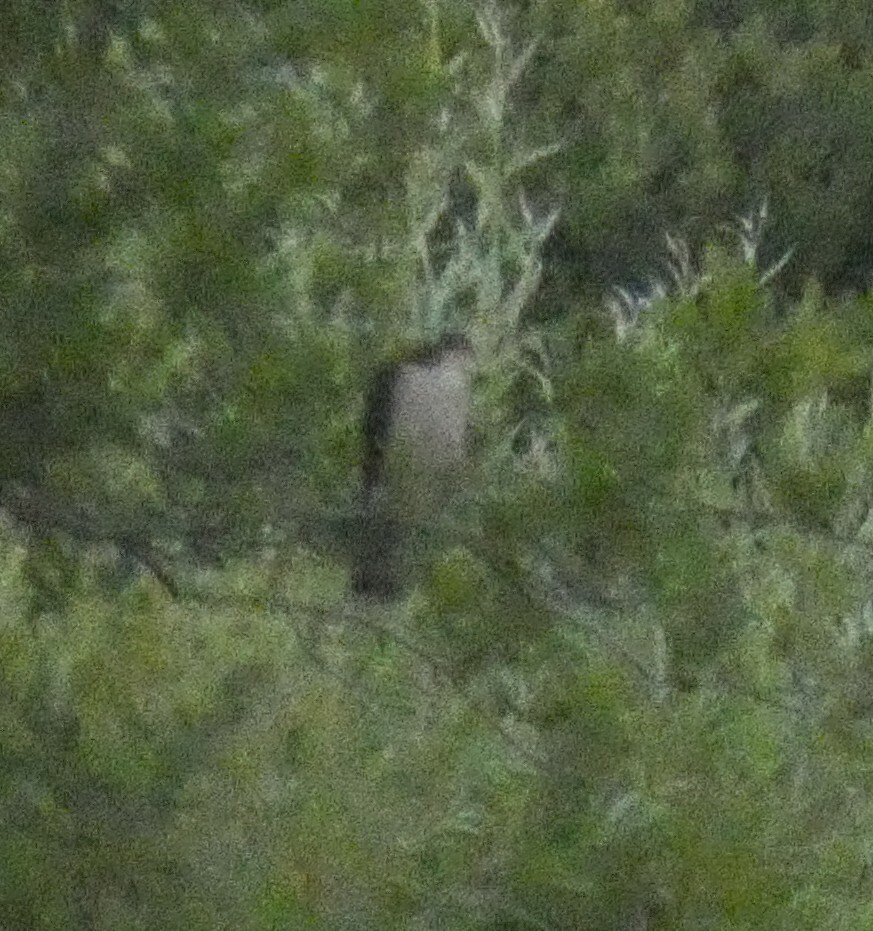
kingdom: Animalia
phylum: Chordata
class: Aves
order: Accipitriformes
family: Accipitridae
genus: Accipiter
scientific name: Accipiter nisus
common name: Eurasian sparrowhawk
